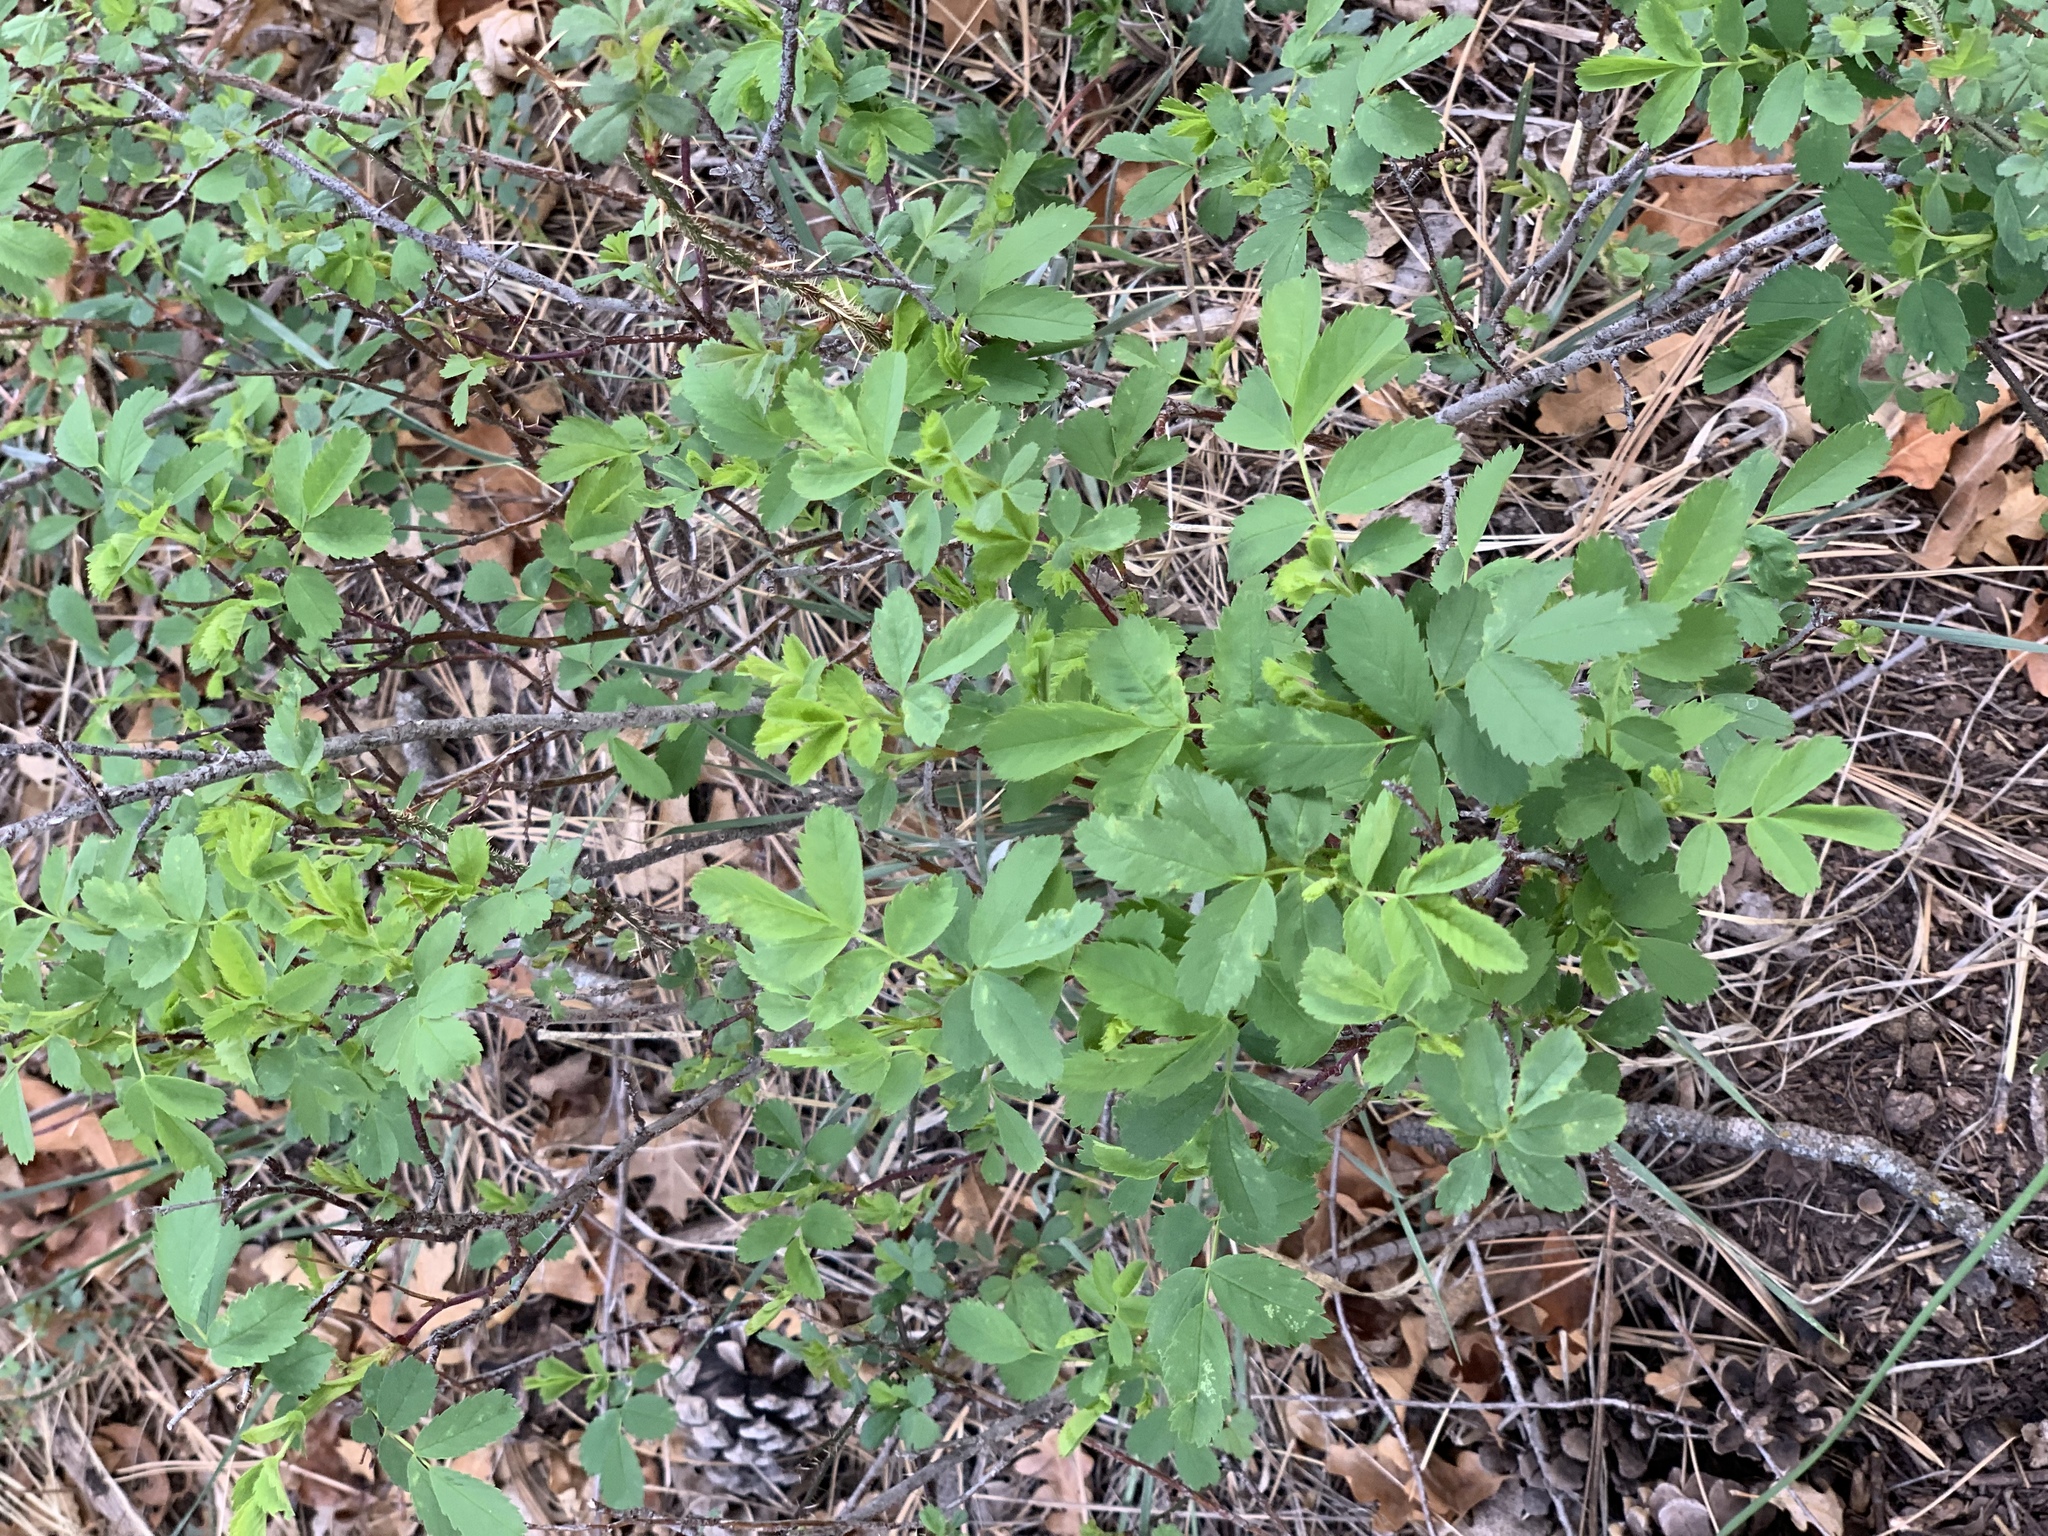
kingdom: Plantae
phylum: Tracheophyta
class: Magnoliopsida
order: Rosales
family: Rosaceae
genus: Rosa
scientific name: Rosa woodsii
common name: Woods's rose
